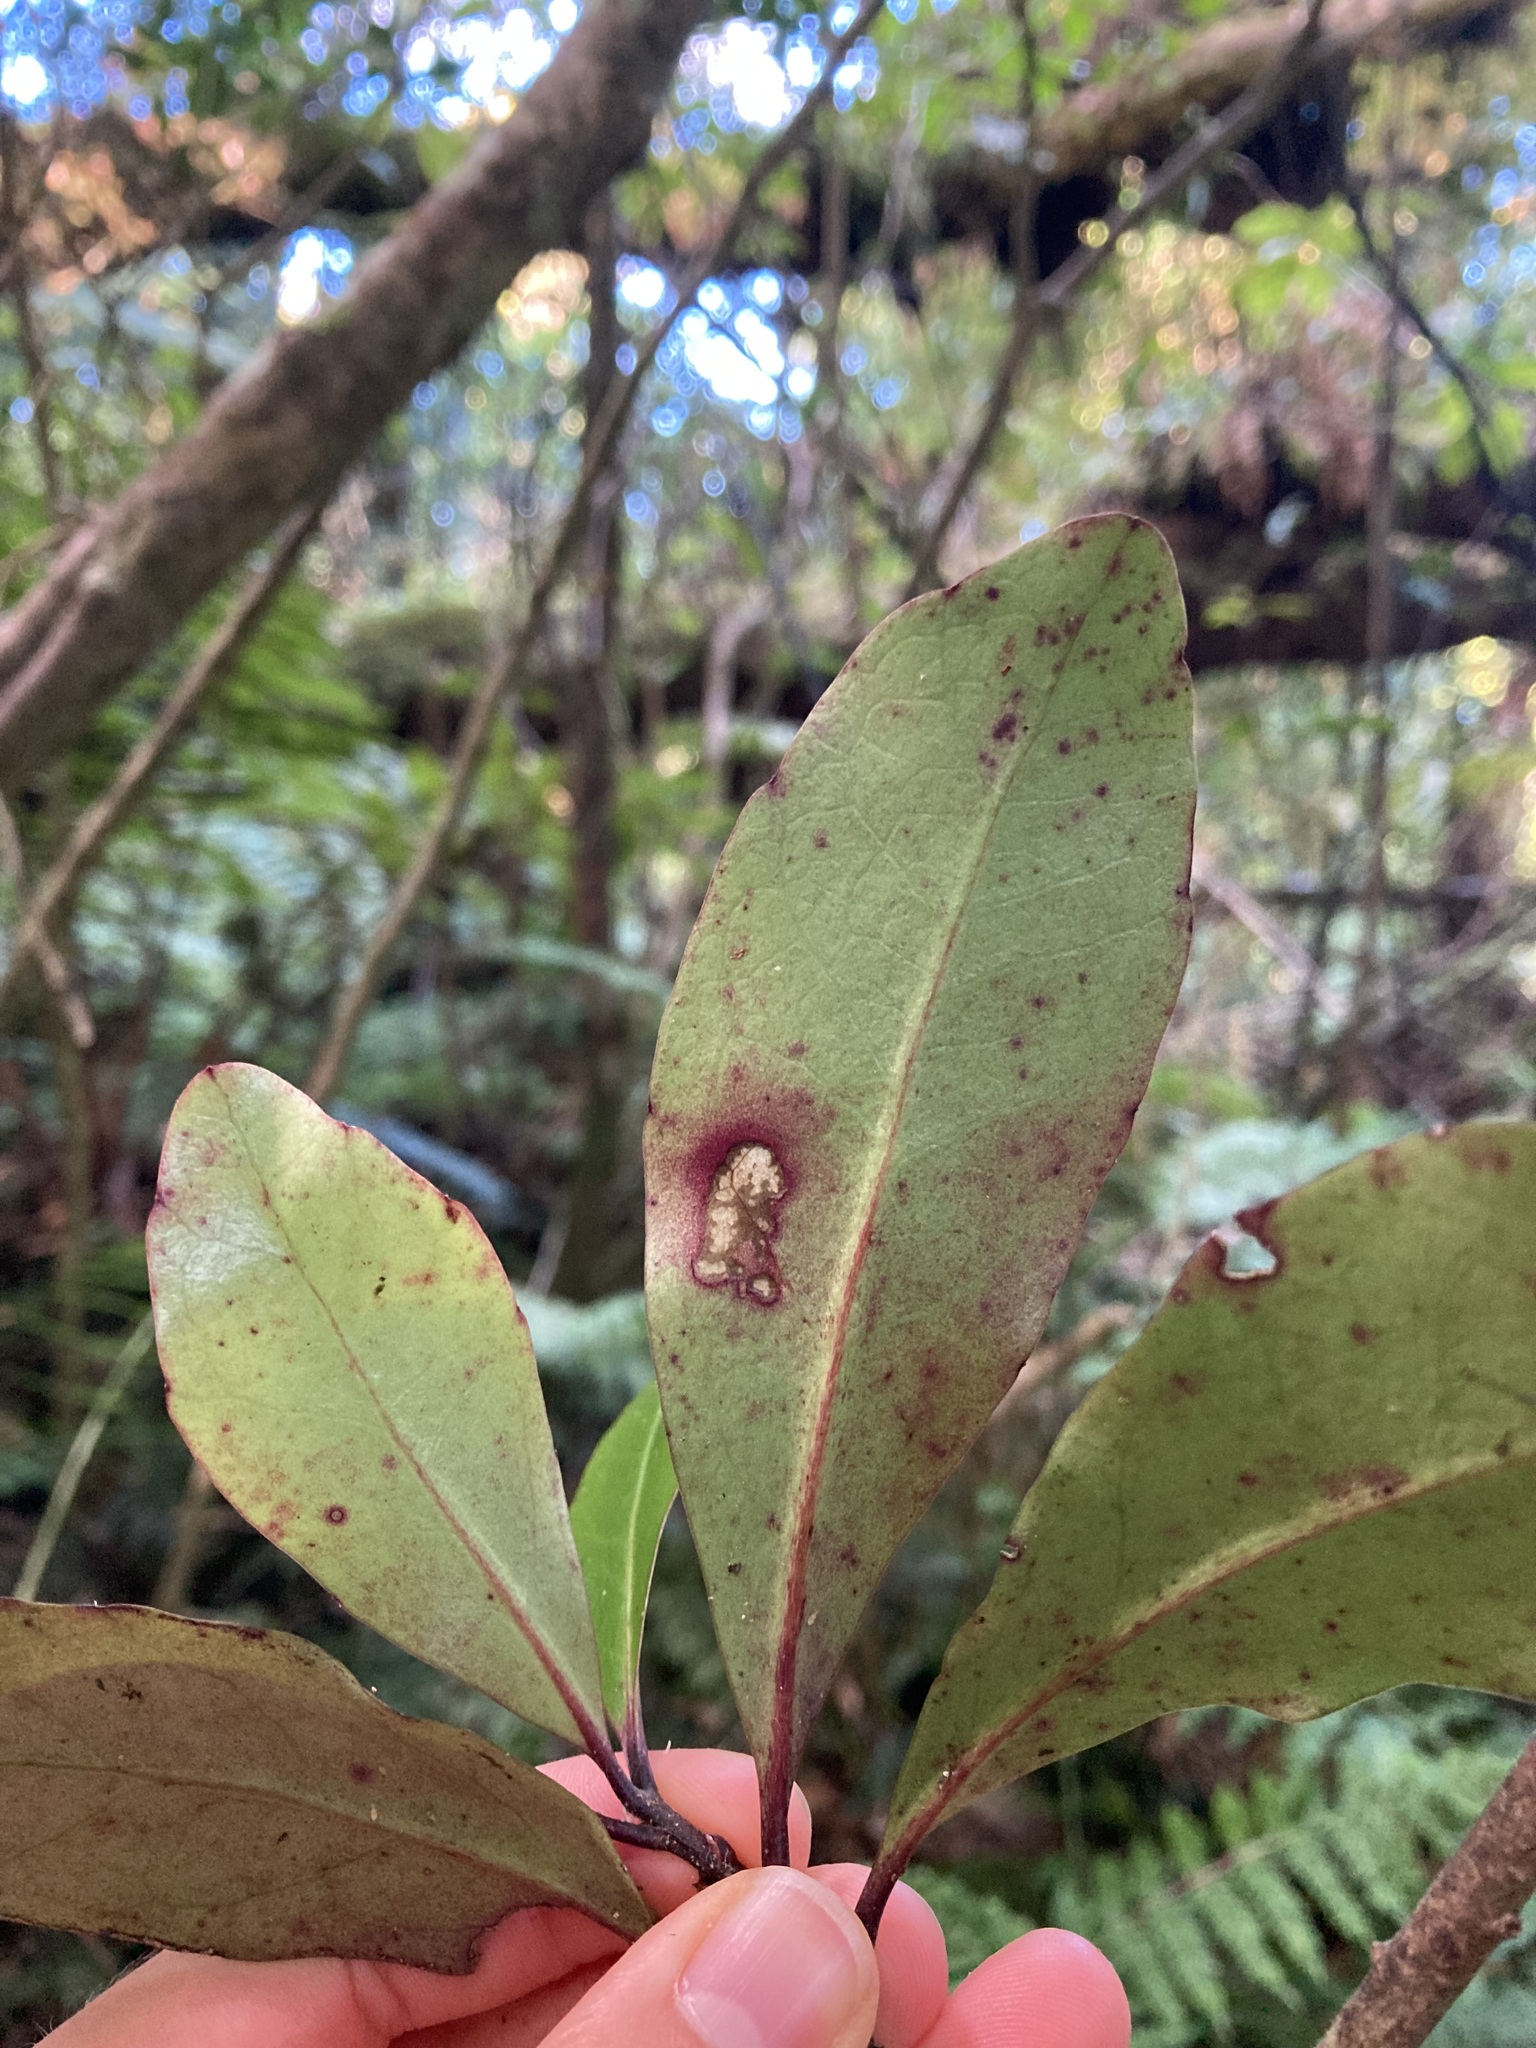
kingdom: Plantae
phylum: Tracheophyta
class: Magnoliopsida
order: Asterales
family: Alseuosmiaceae
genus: Alseuosmia
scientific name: Alseuosmia pusilla
